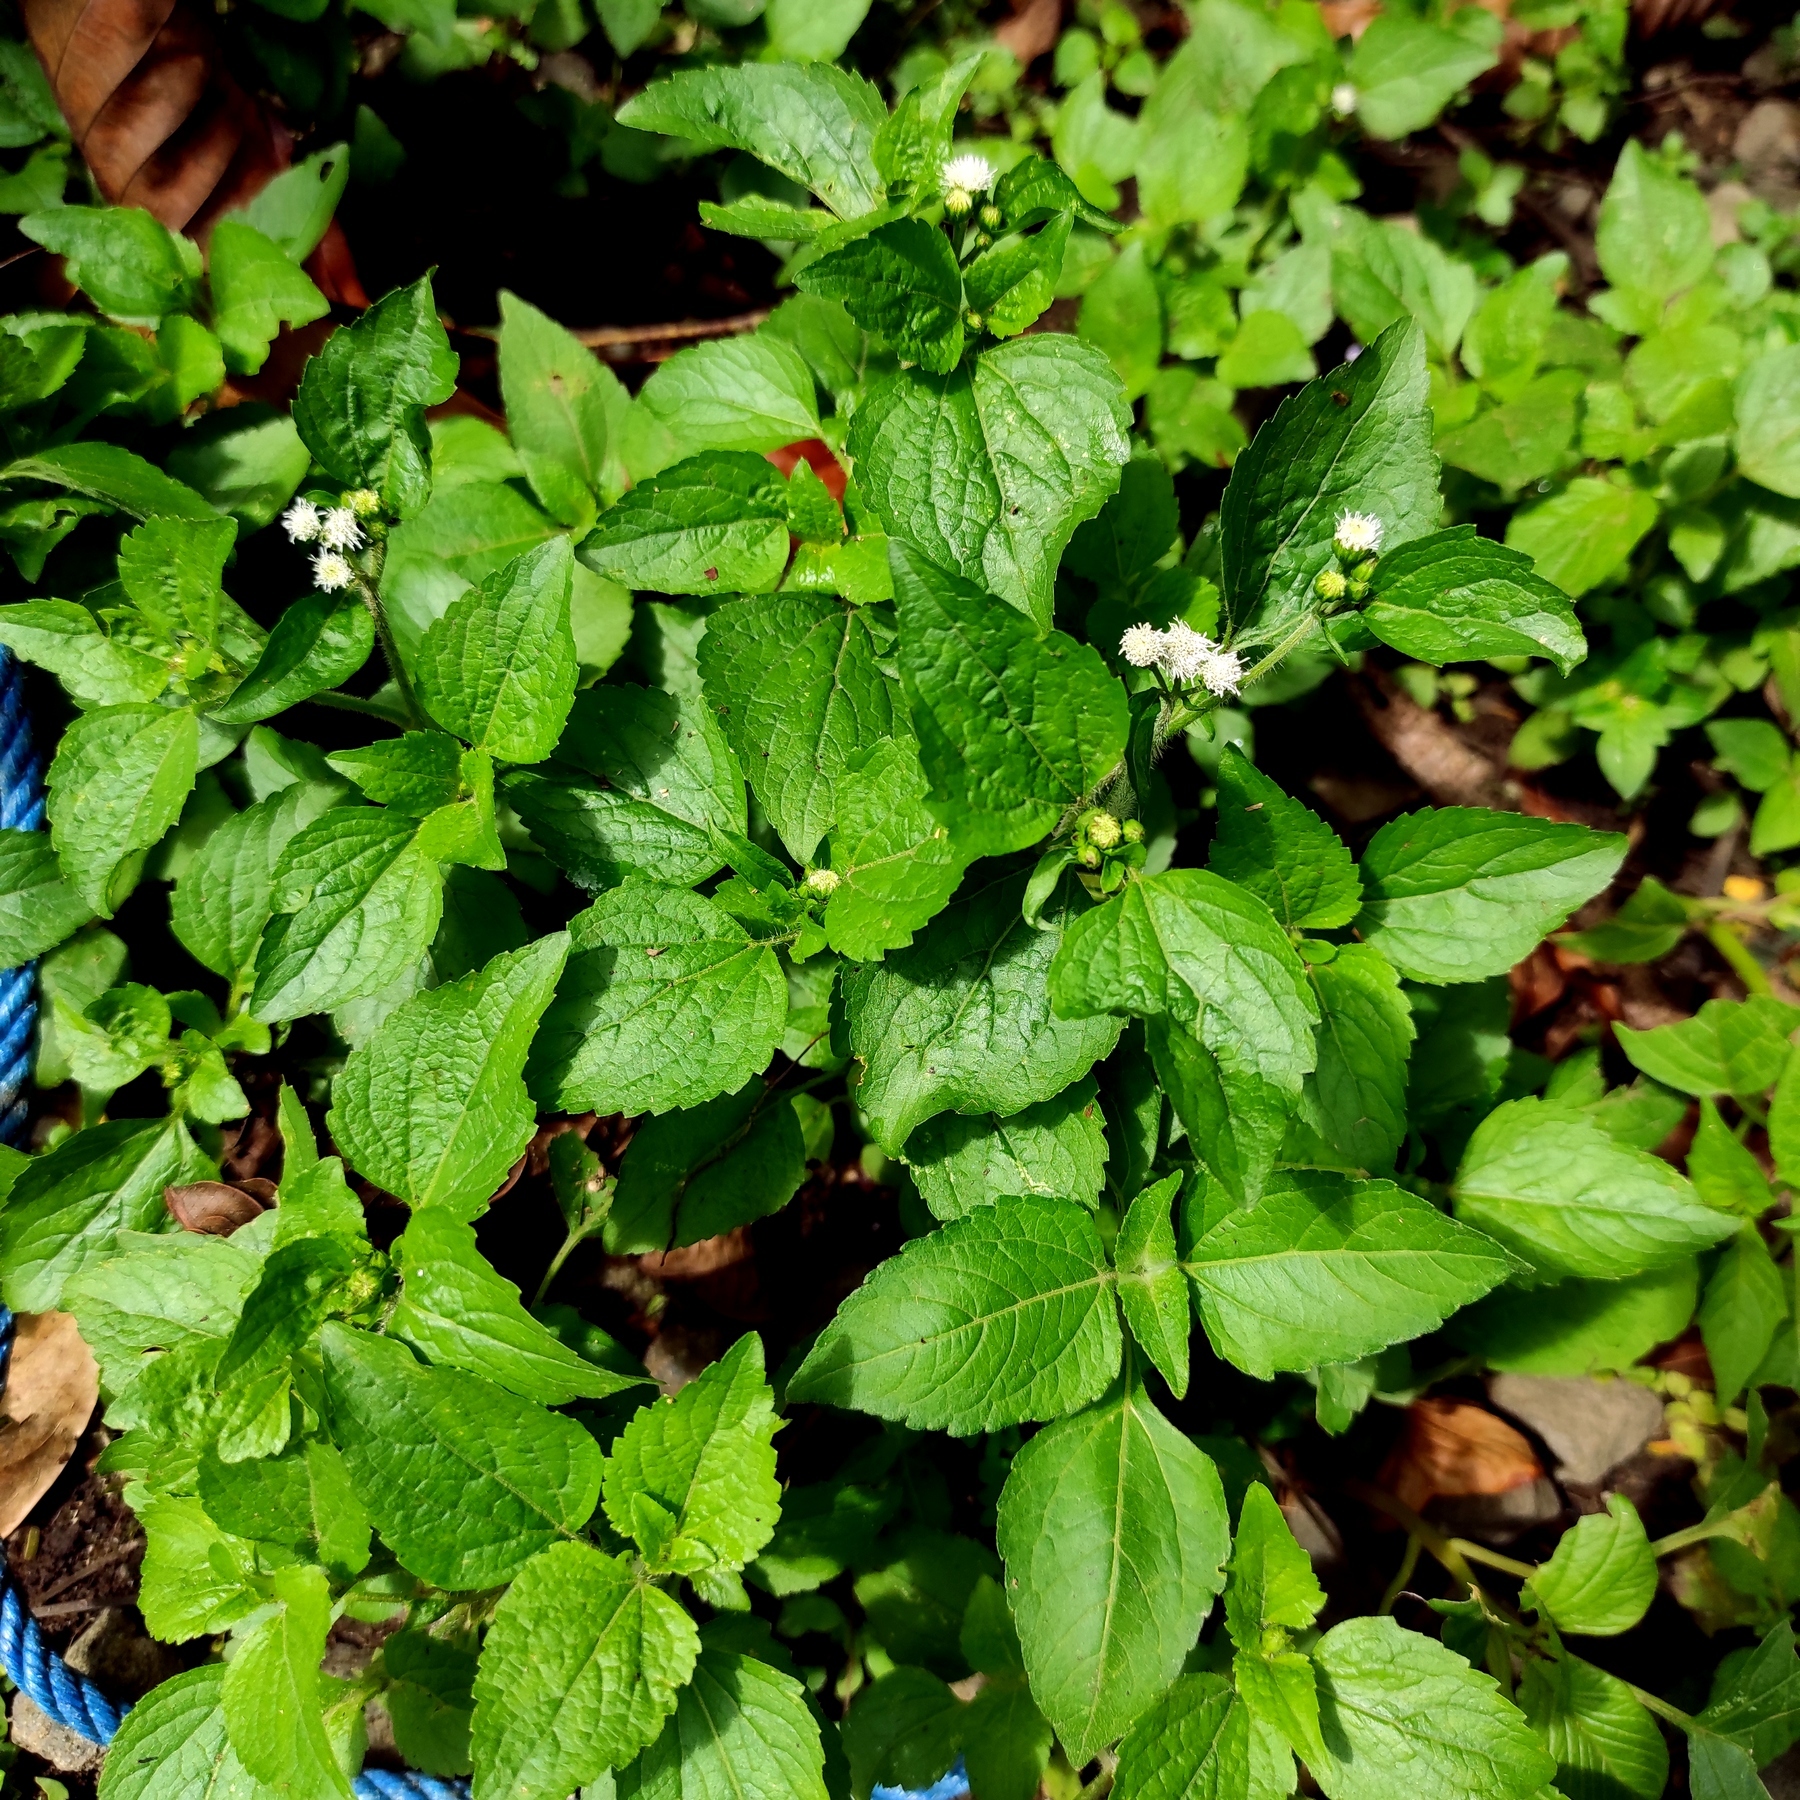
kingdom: Plantae
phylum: Tracheophyta
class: Magnoliopsida
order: Asterales
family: Asteraceae
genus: Ageratum
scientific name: Ageratum conyzoides
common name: Tropical whiteweed
